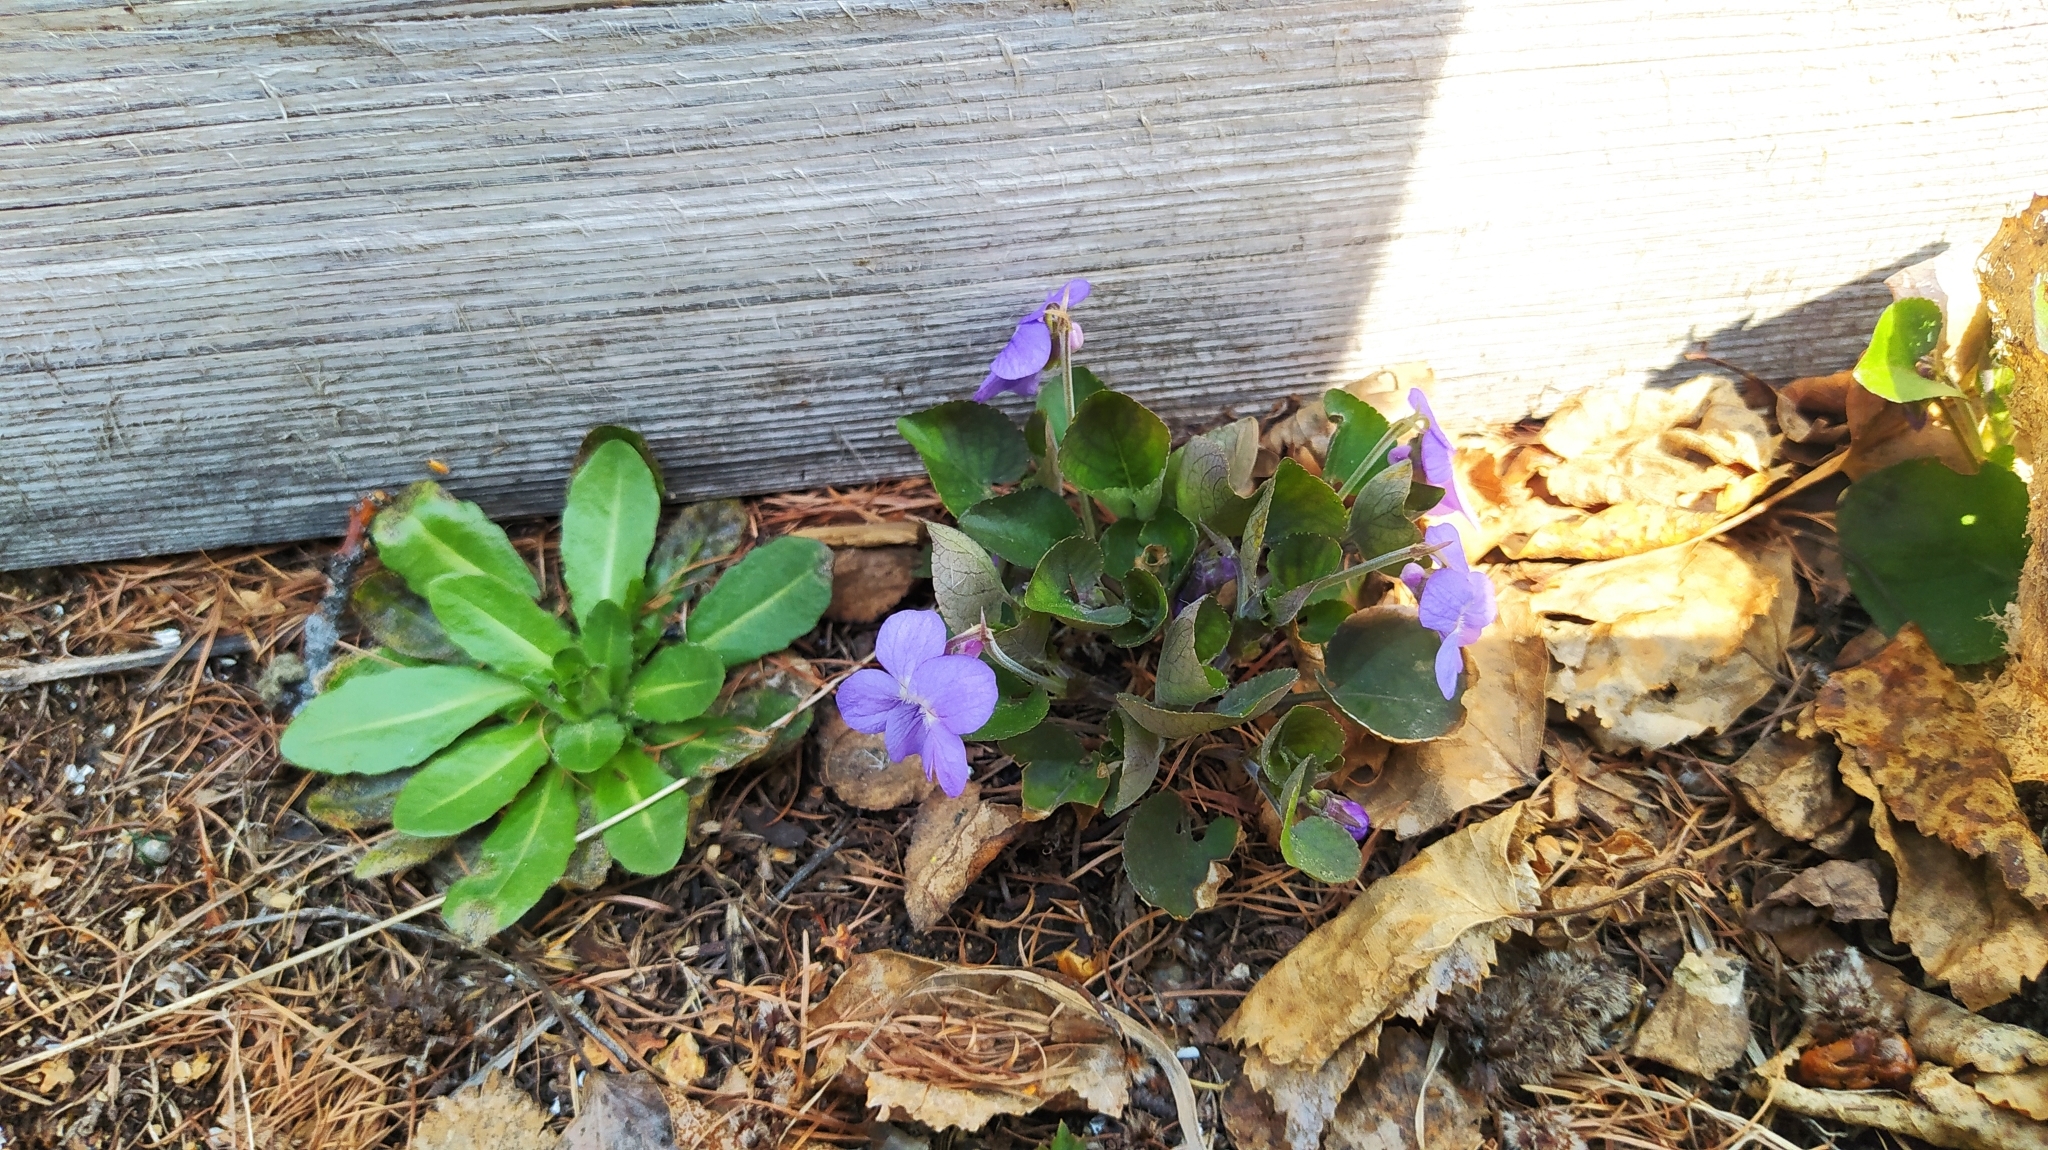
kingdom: Plantae
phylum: Tracheophyta
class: Magnoliopsida
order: Malpighiales
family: Violaceae
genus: Viola
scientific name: Viola rupestris
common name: Teesdale violet
